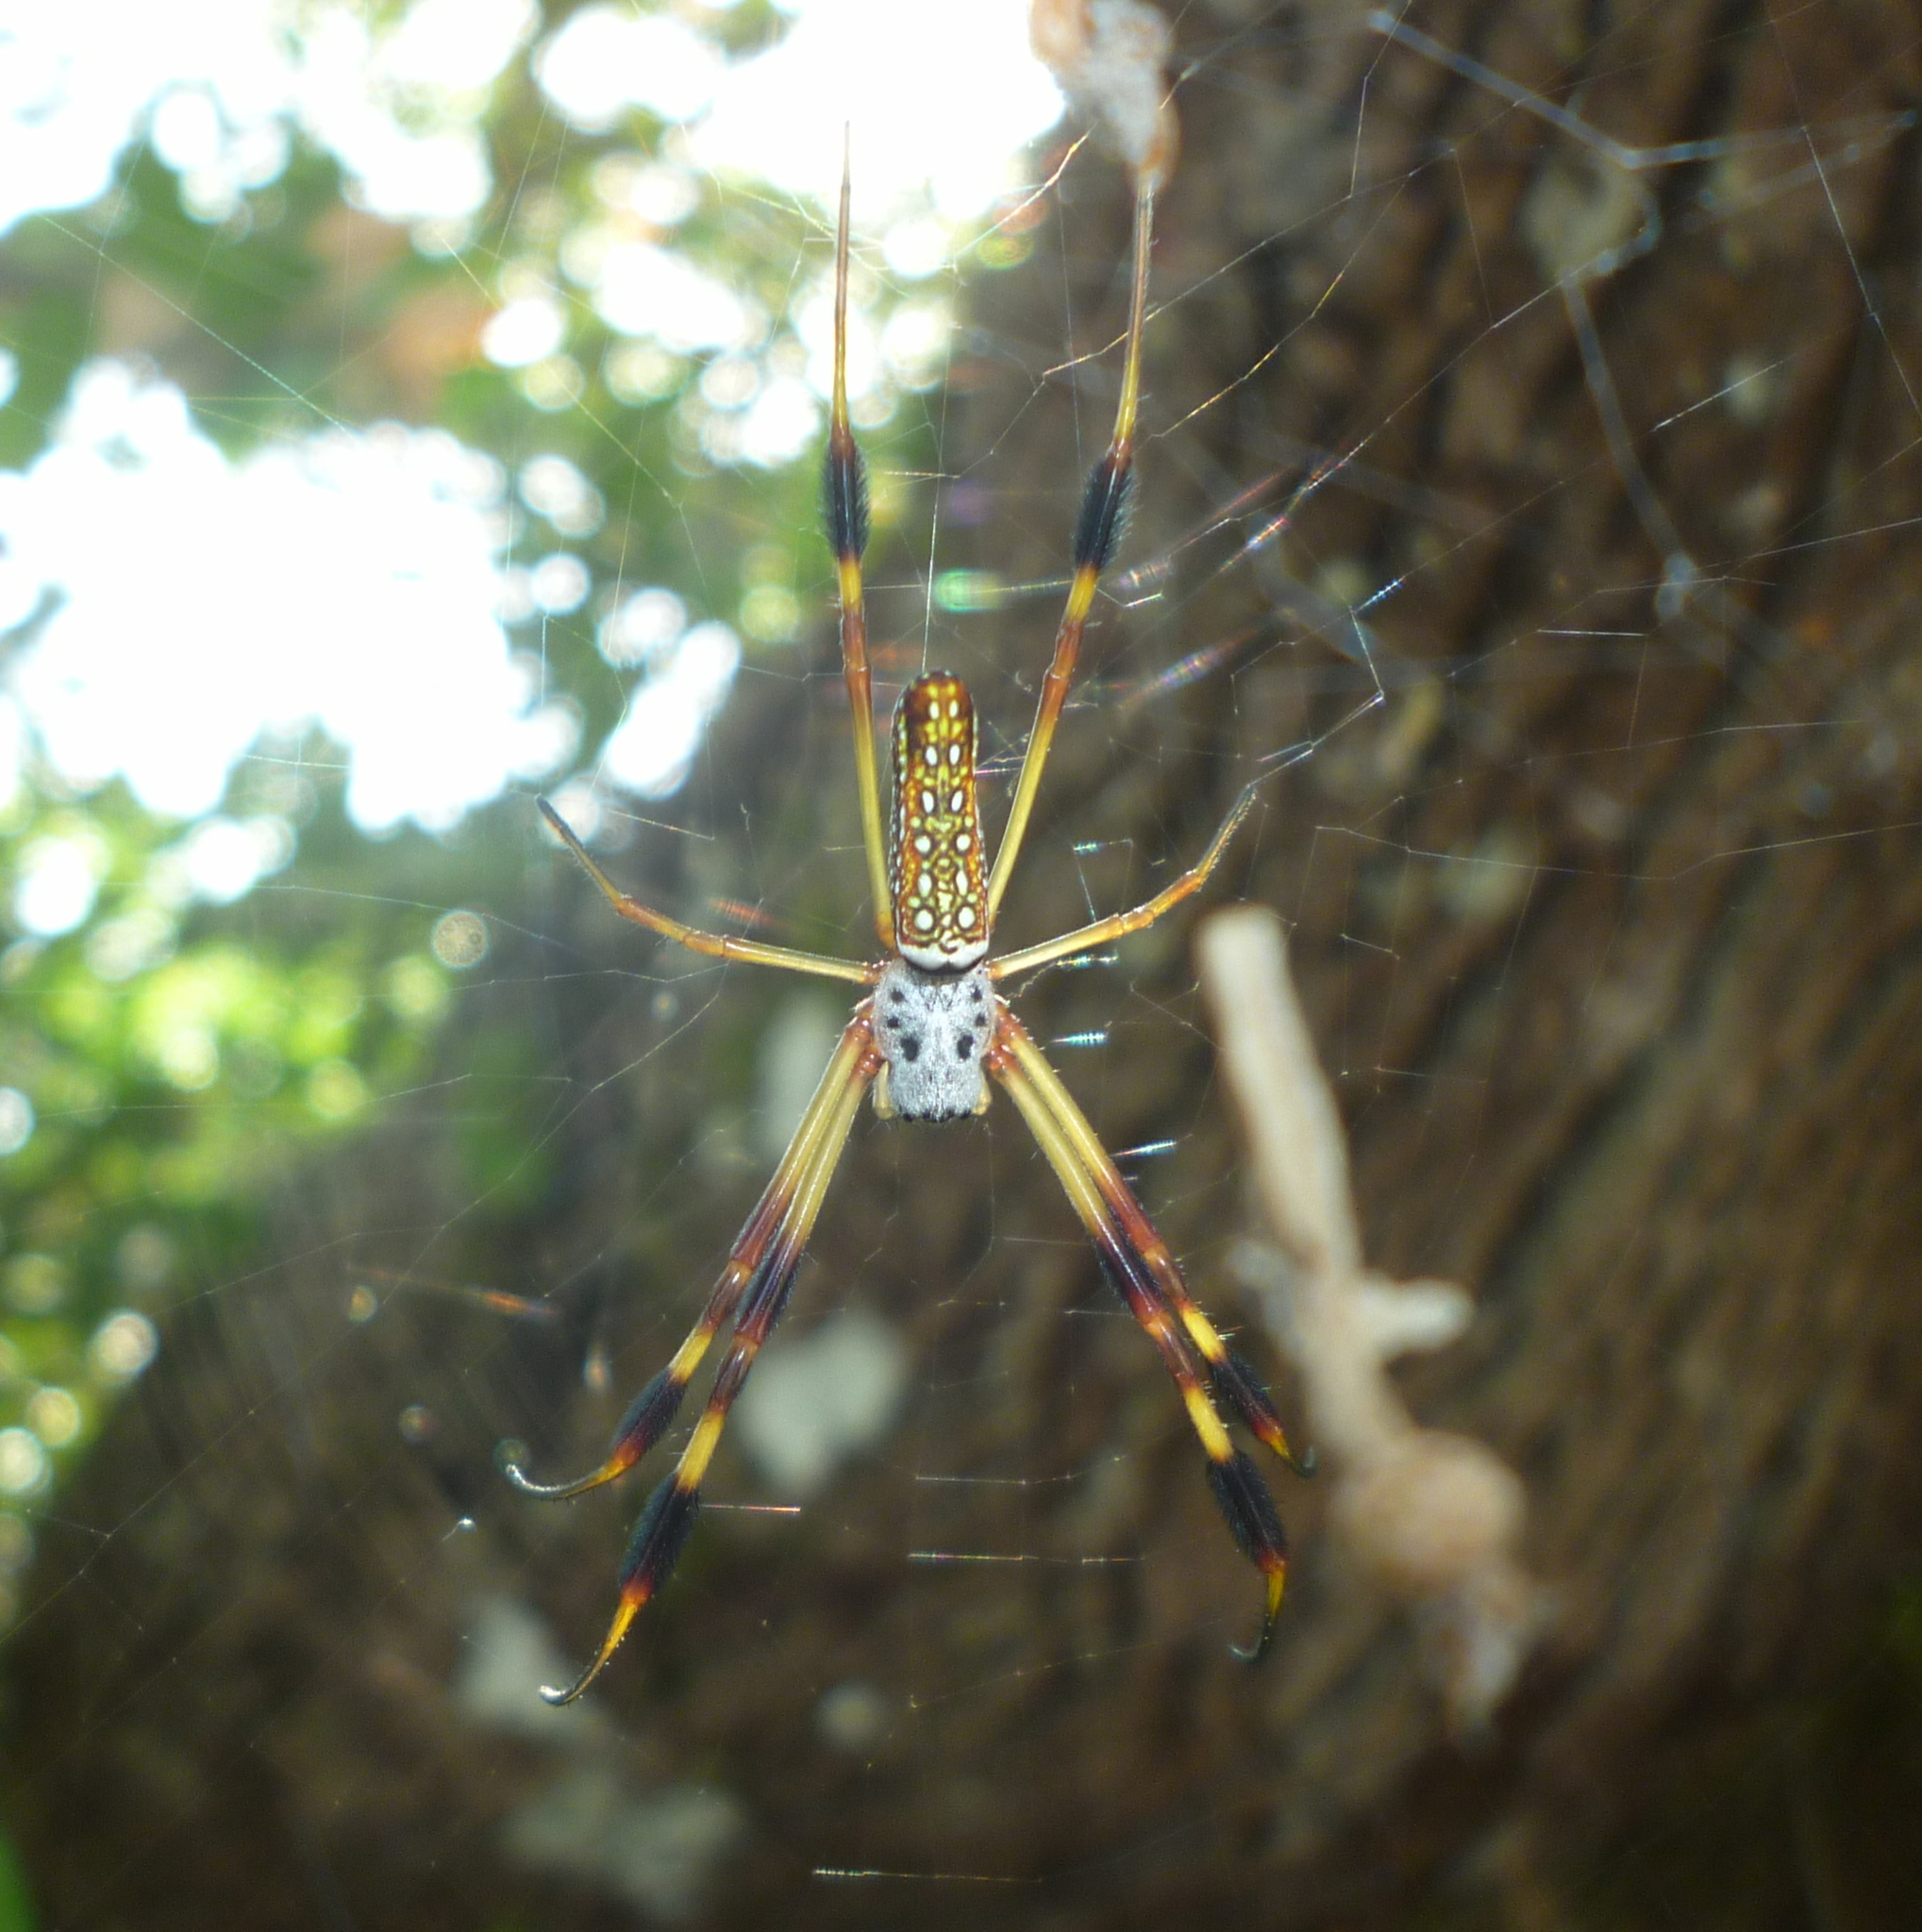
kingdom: Animalia
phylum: Arthropoda
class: Arachnida
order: Araneae
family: Araneidae
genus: Trichonephila
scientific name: Trichonephila clavipes
